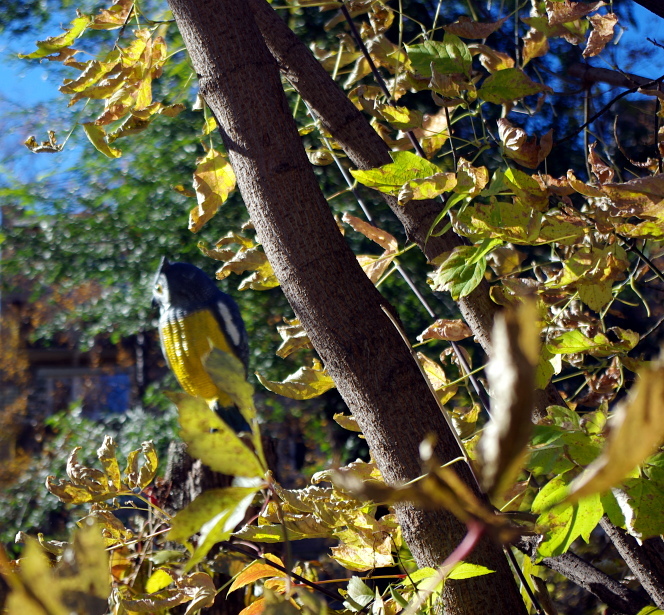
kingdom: Plantae
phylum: Tracheophyta
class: Magnoliopsida
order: Sapindales
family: Sapindaceae
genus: Acer
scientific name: Acer negundo
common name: Ashleaf maple
